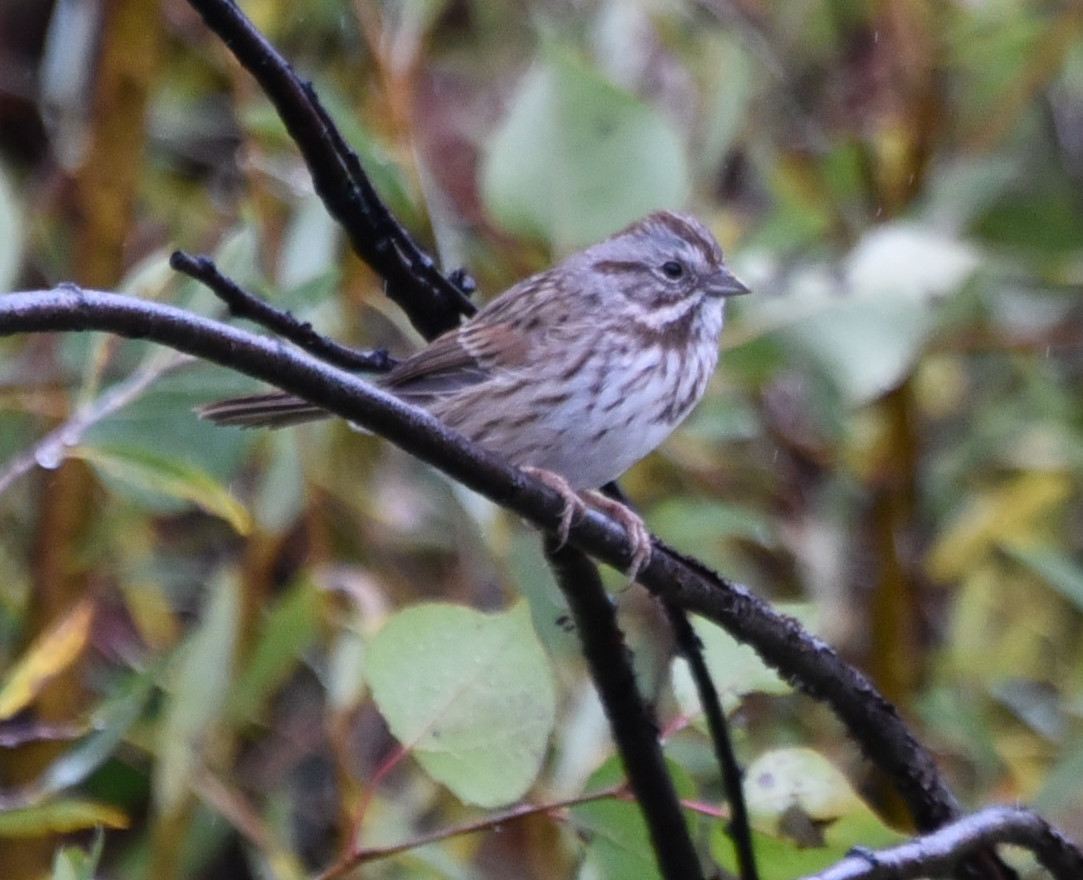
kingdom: Animalia
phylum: Chordata
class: Aves
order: Passeriformes
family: Passerellidae
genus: Melospiza
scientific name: Melospiza melodia
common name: Song sparrow
